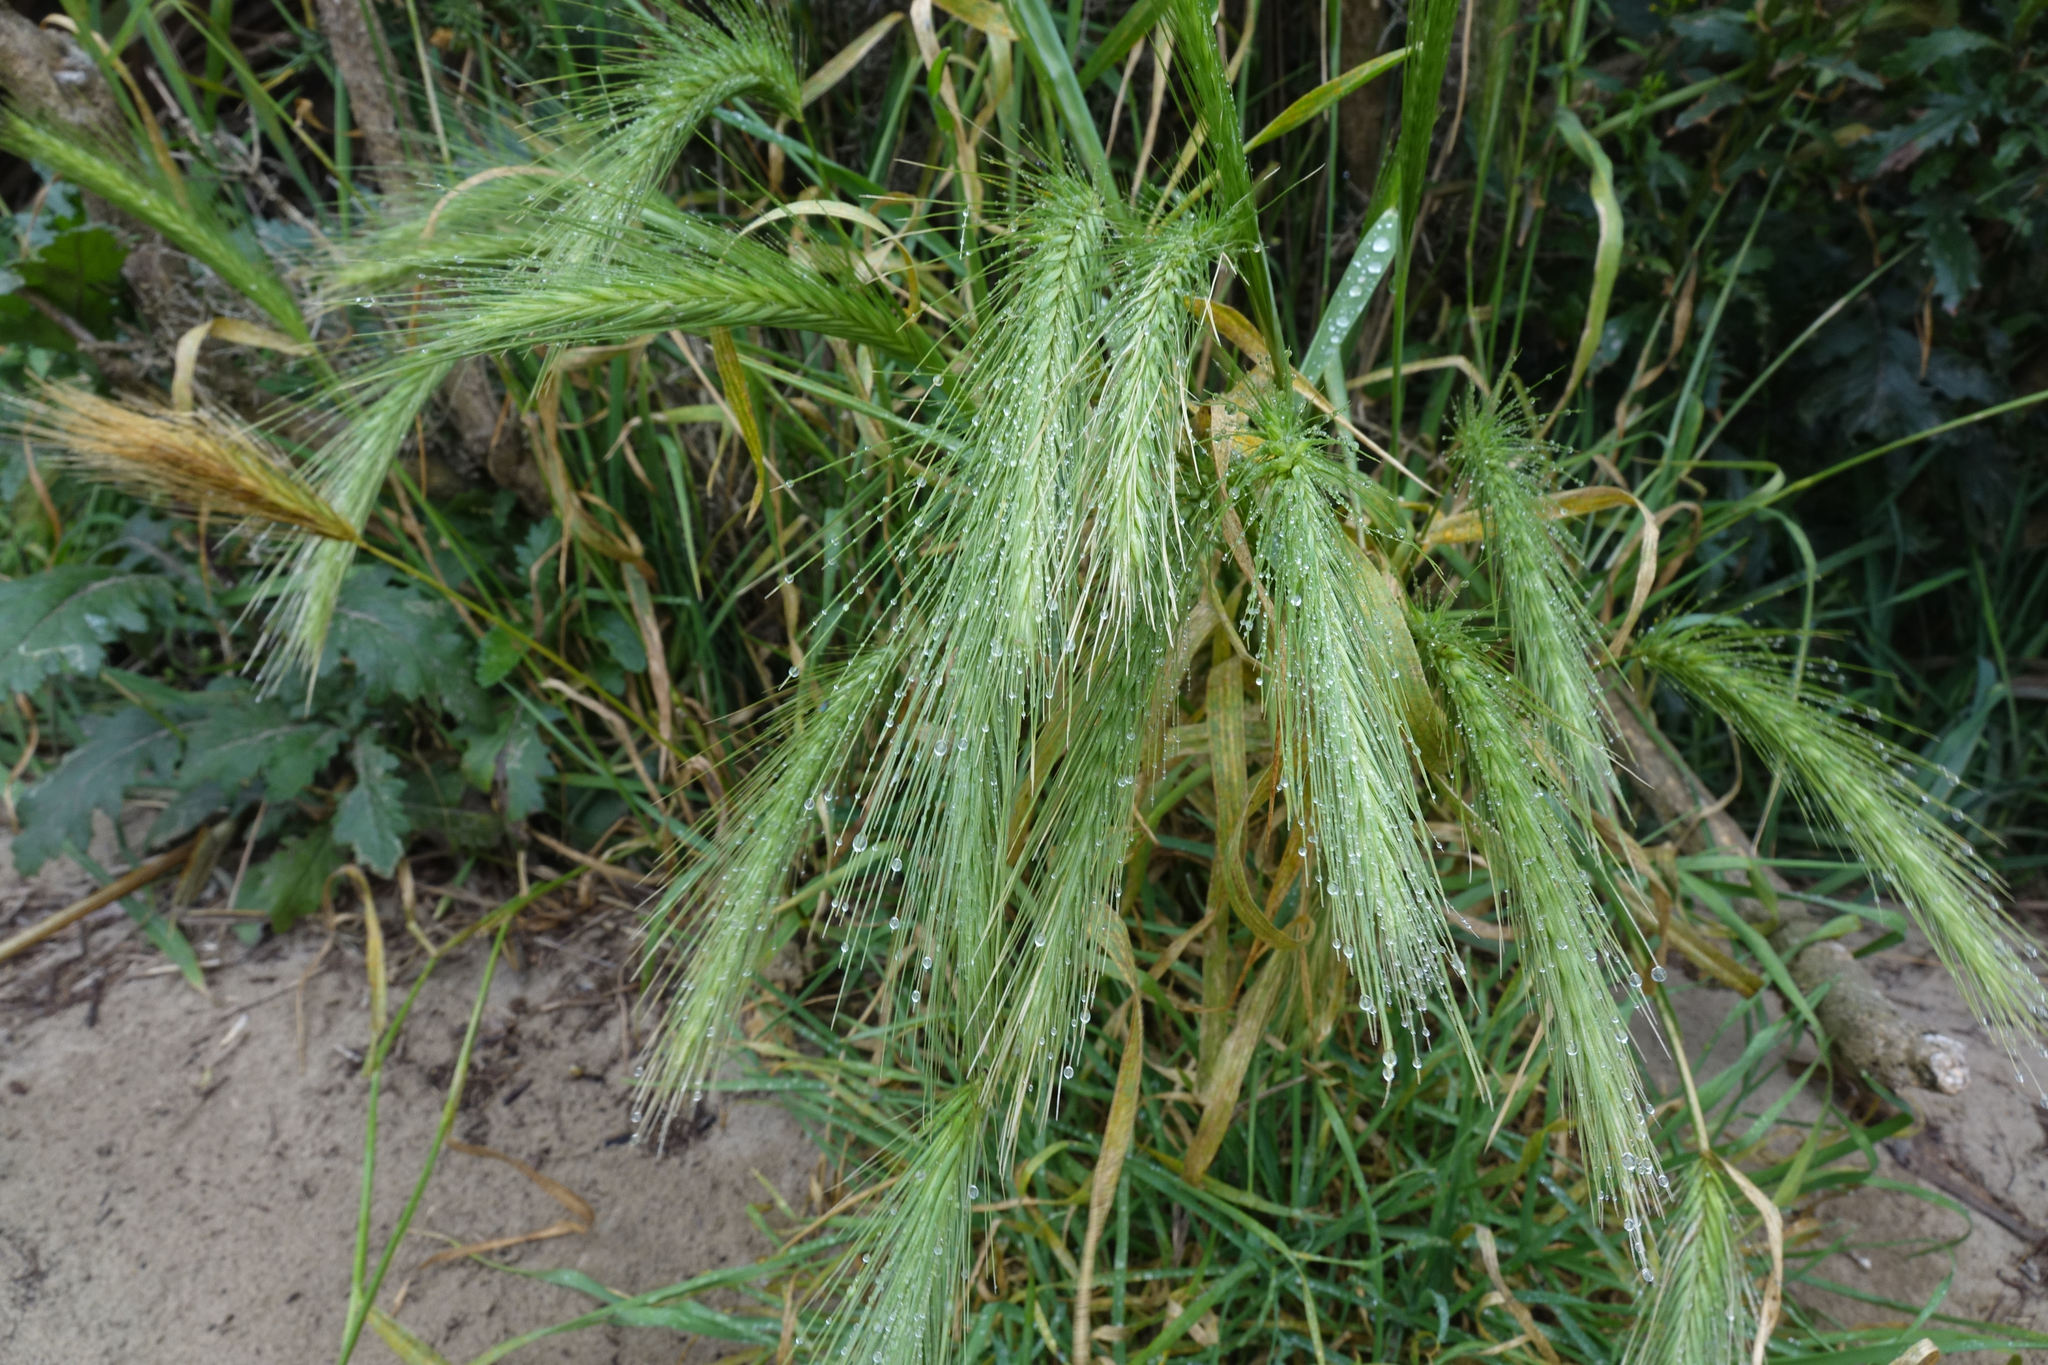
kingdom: Plantae
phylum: Tracheophyta
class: Liliopsida
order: Poales
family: Poaceae
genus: Hordeum
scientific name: Hordeum murinum
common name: Wall barley
